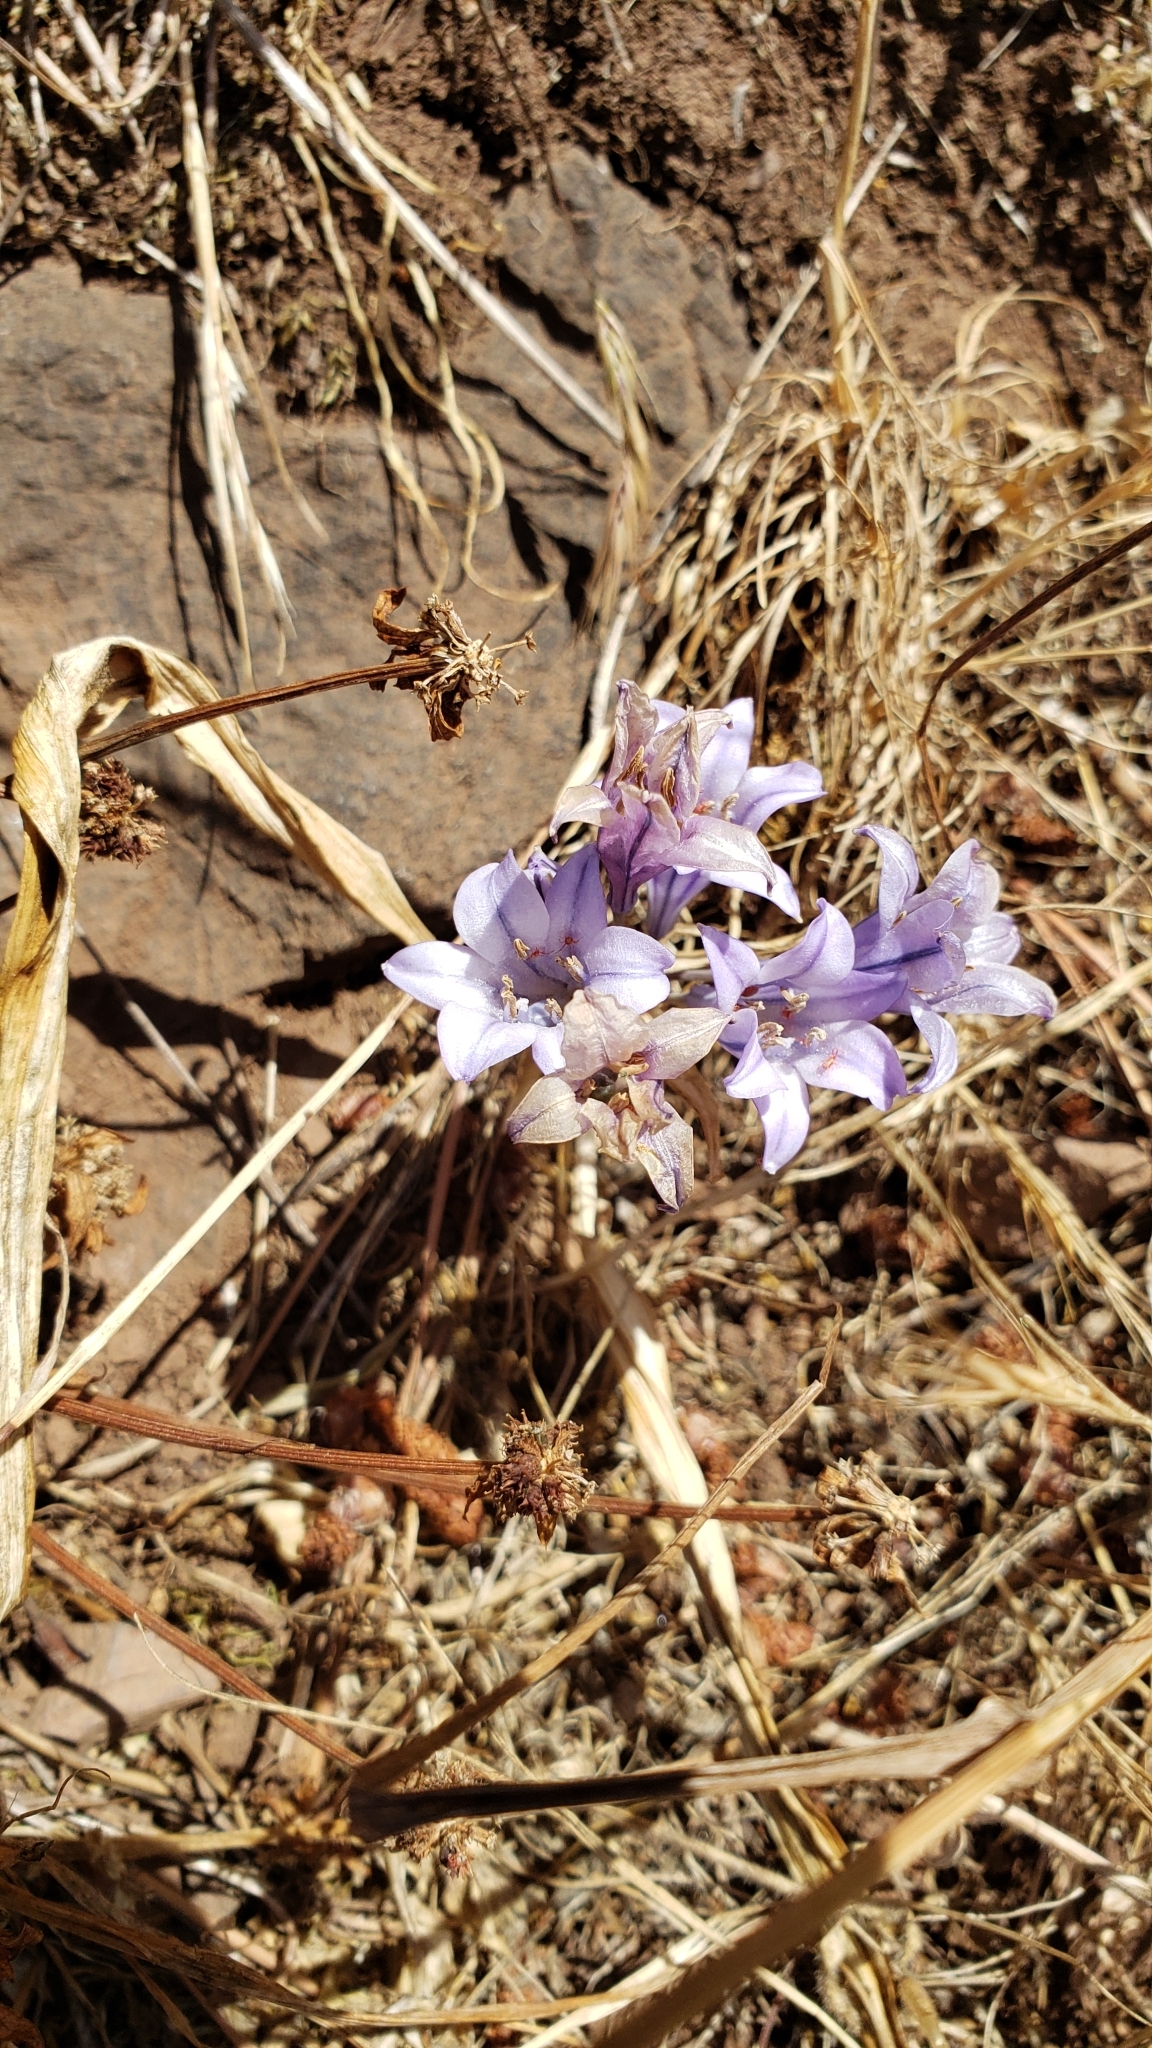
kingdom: Plantae
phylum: Tracheophyta
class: Liliopsida
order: Asparagales
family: Asparagaceae
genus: Triteleia
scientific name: Triteleia laxa
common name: Triplet-lily
